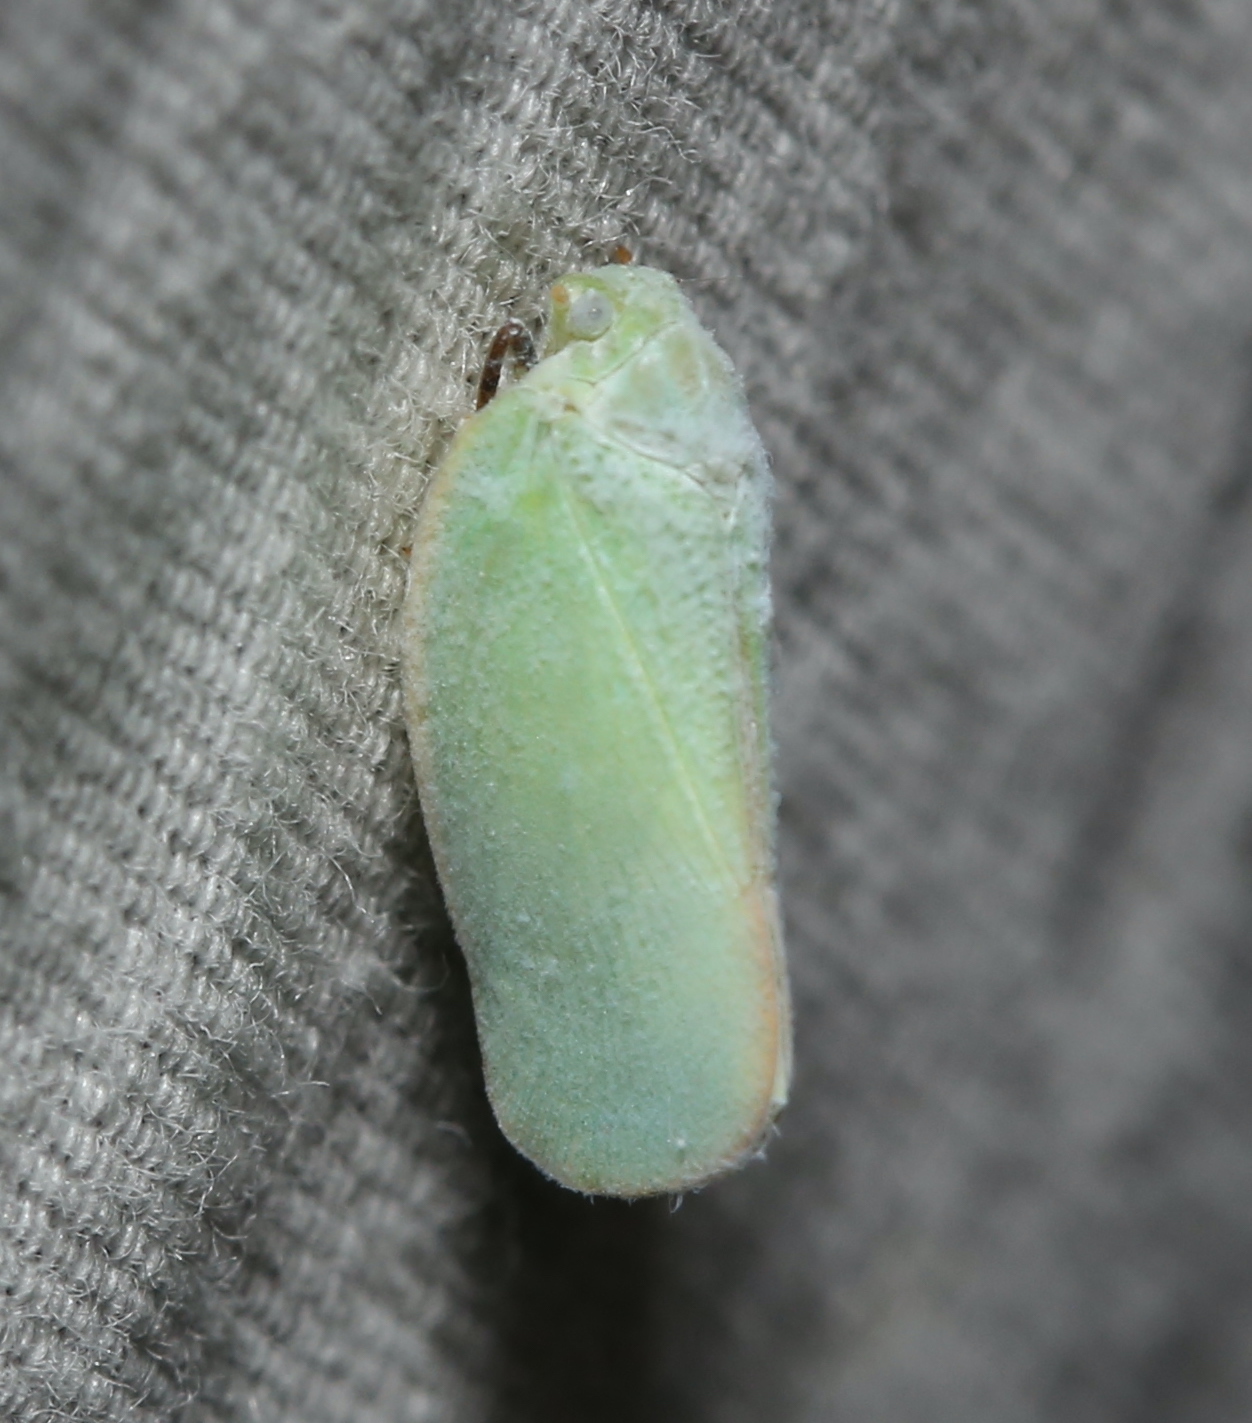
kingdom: Animalia
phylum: Arthropoda
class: Insecta
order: Hemiptera
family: Flatidae
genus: Ormenoides
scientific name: Ormenoides venusta
